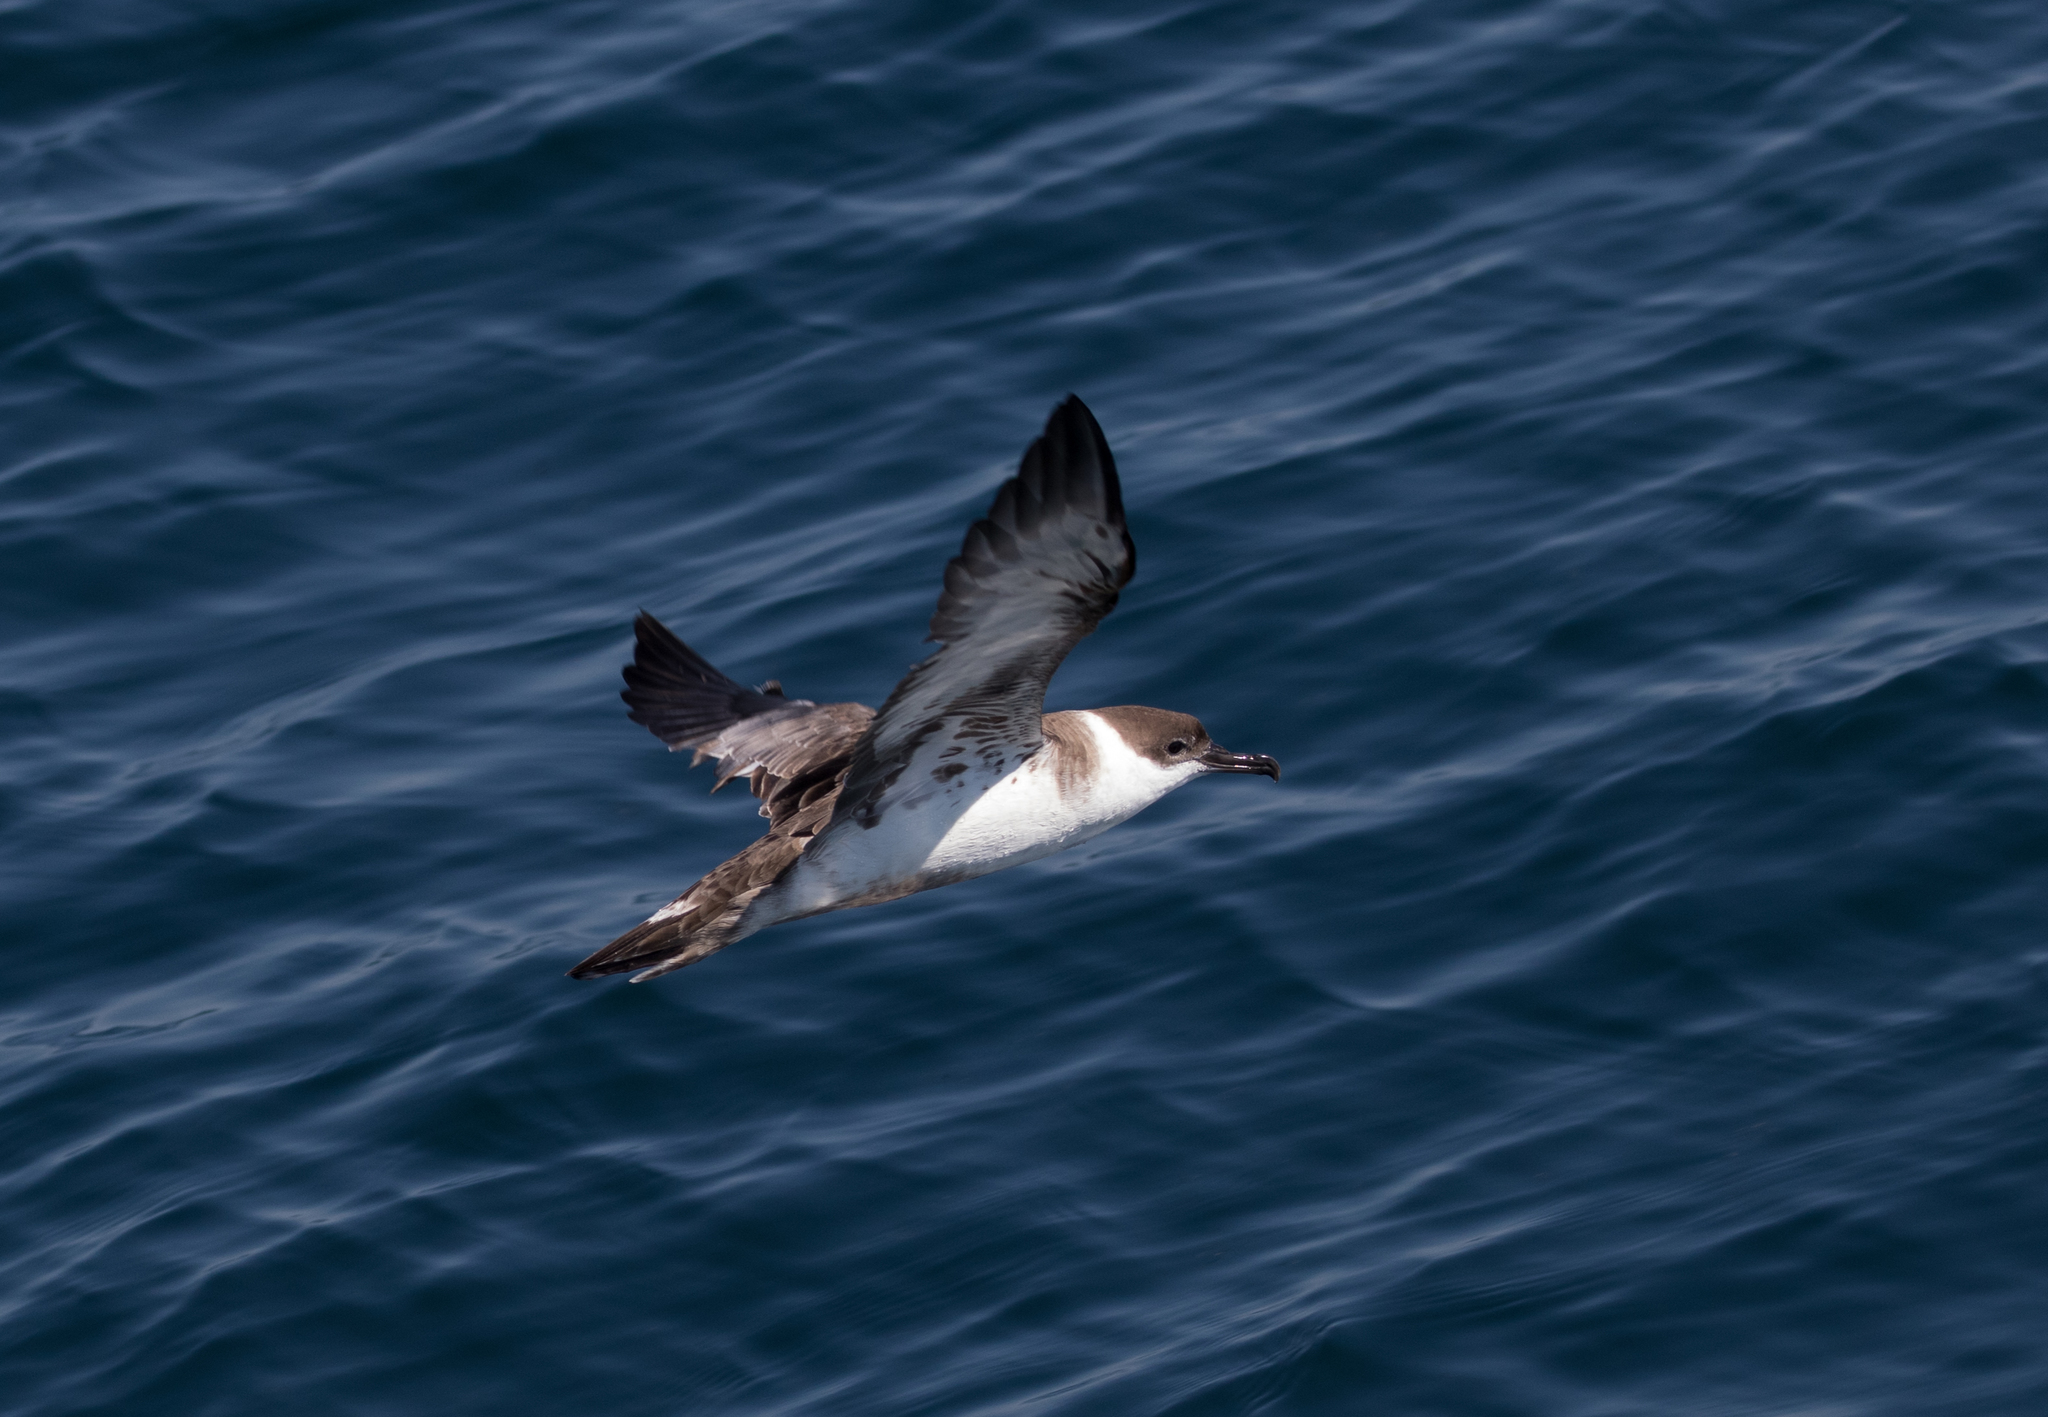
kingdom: Animalia
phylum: Chordata
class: Aves
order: Procellariiformes
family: Procellariidae
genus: Puffinus
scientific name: Puffinus gravis
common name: Great shearwater
